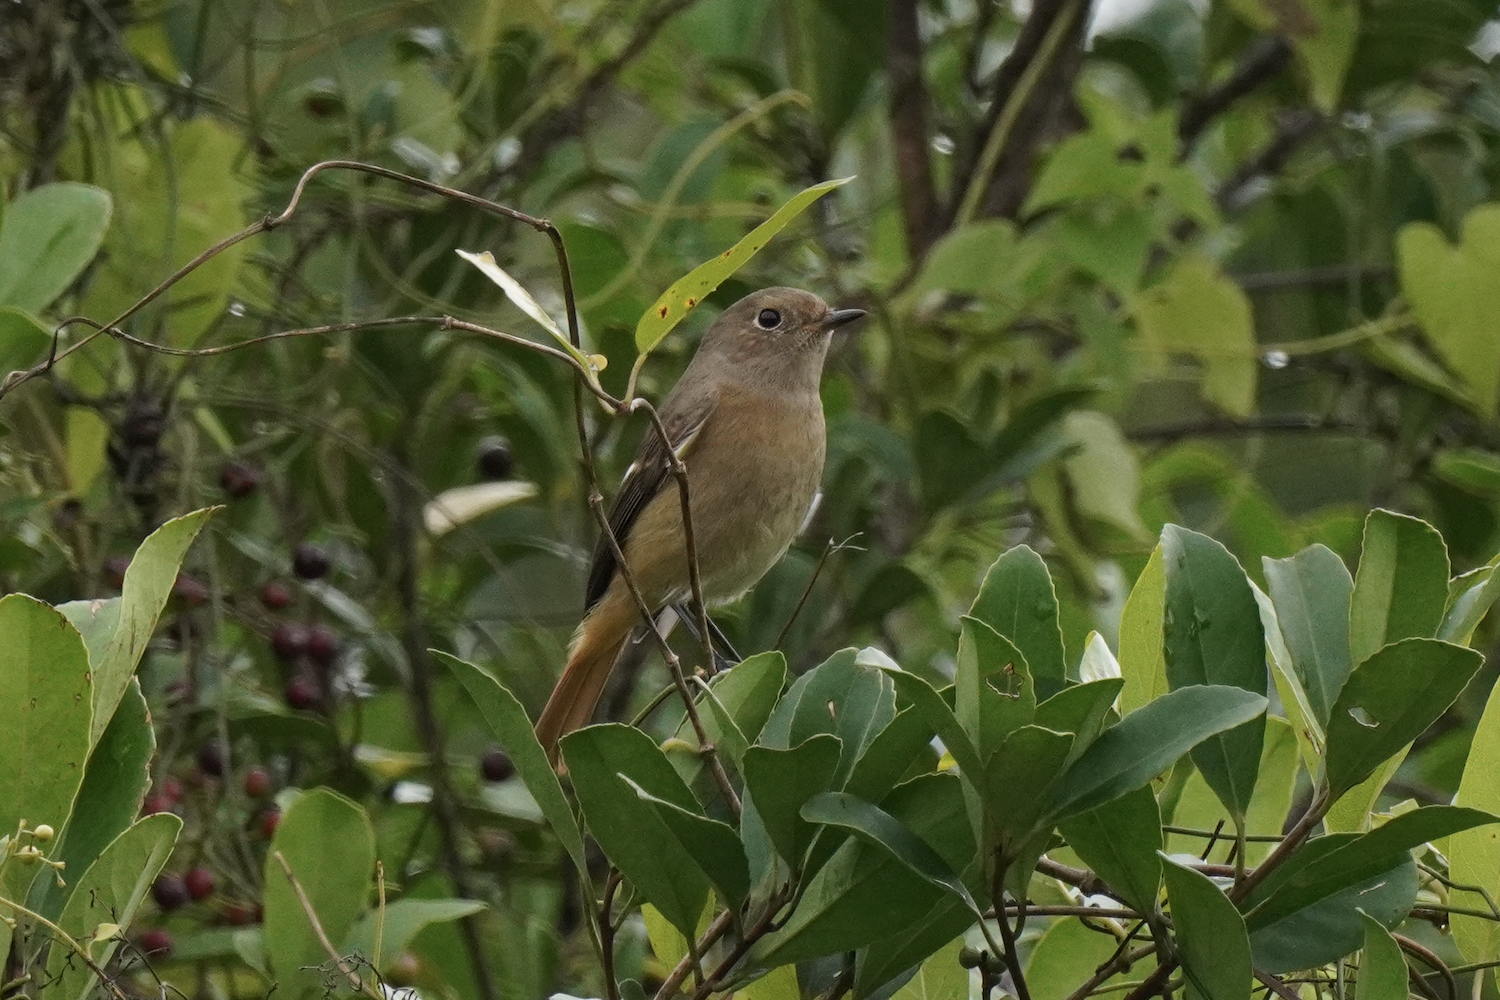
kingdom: Animalia
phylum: Chordata
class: Aves
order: Passeriformes
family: Muscicapidae
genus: Phoenicurus
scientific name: Phoenicurus auroreus
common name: Daurian redstart
